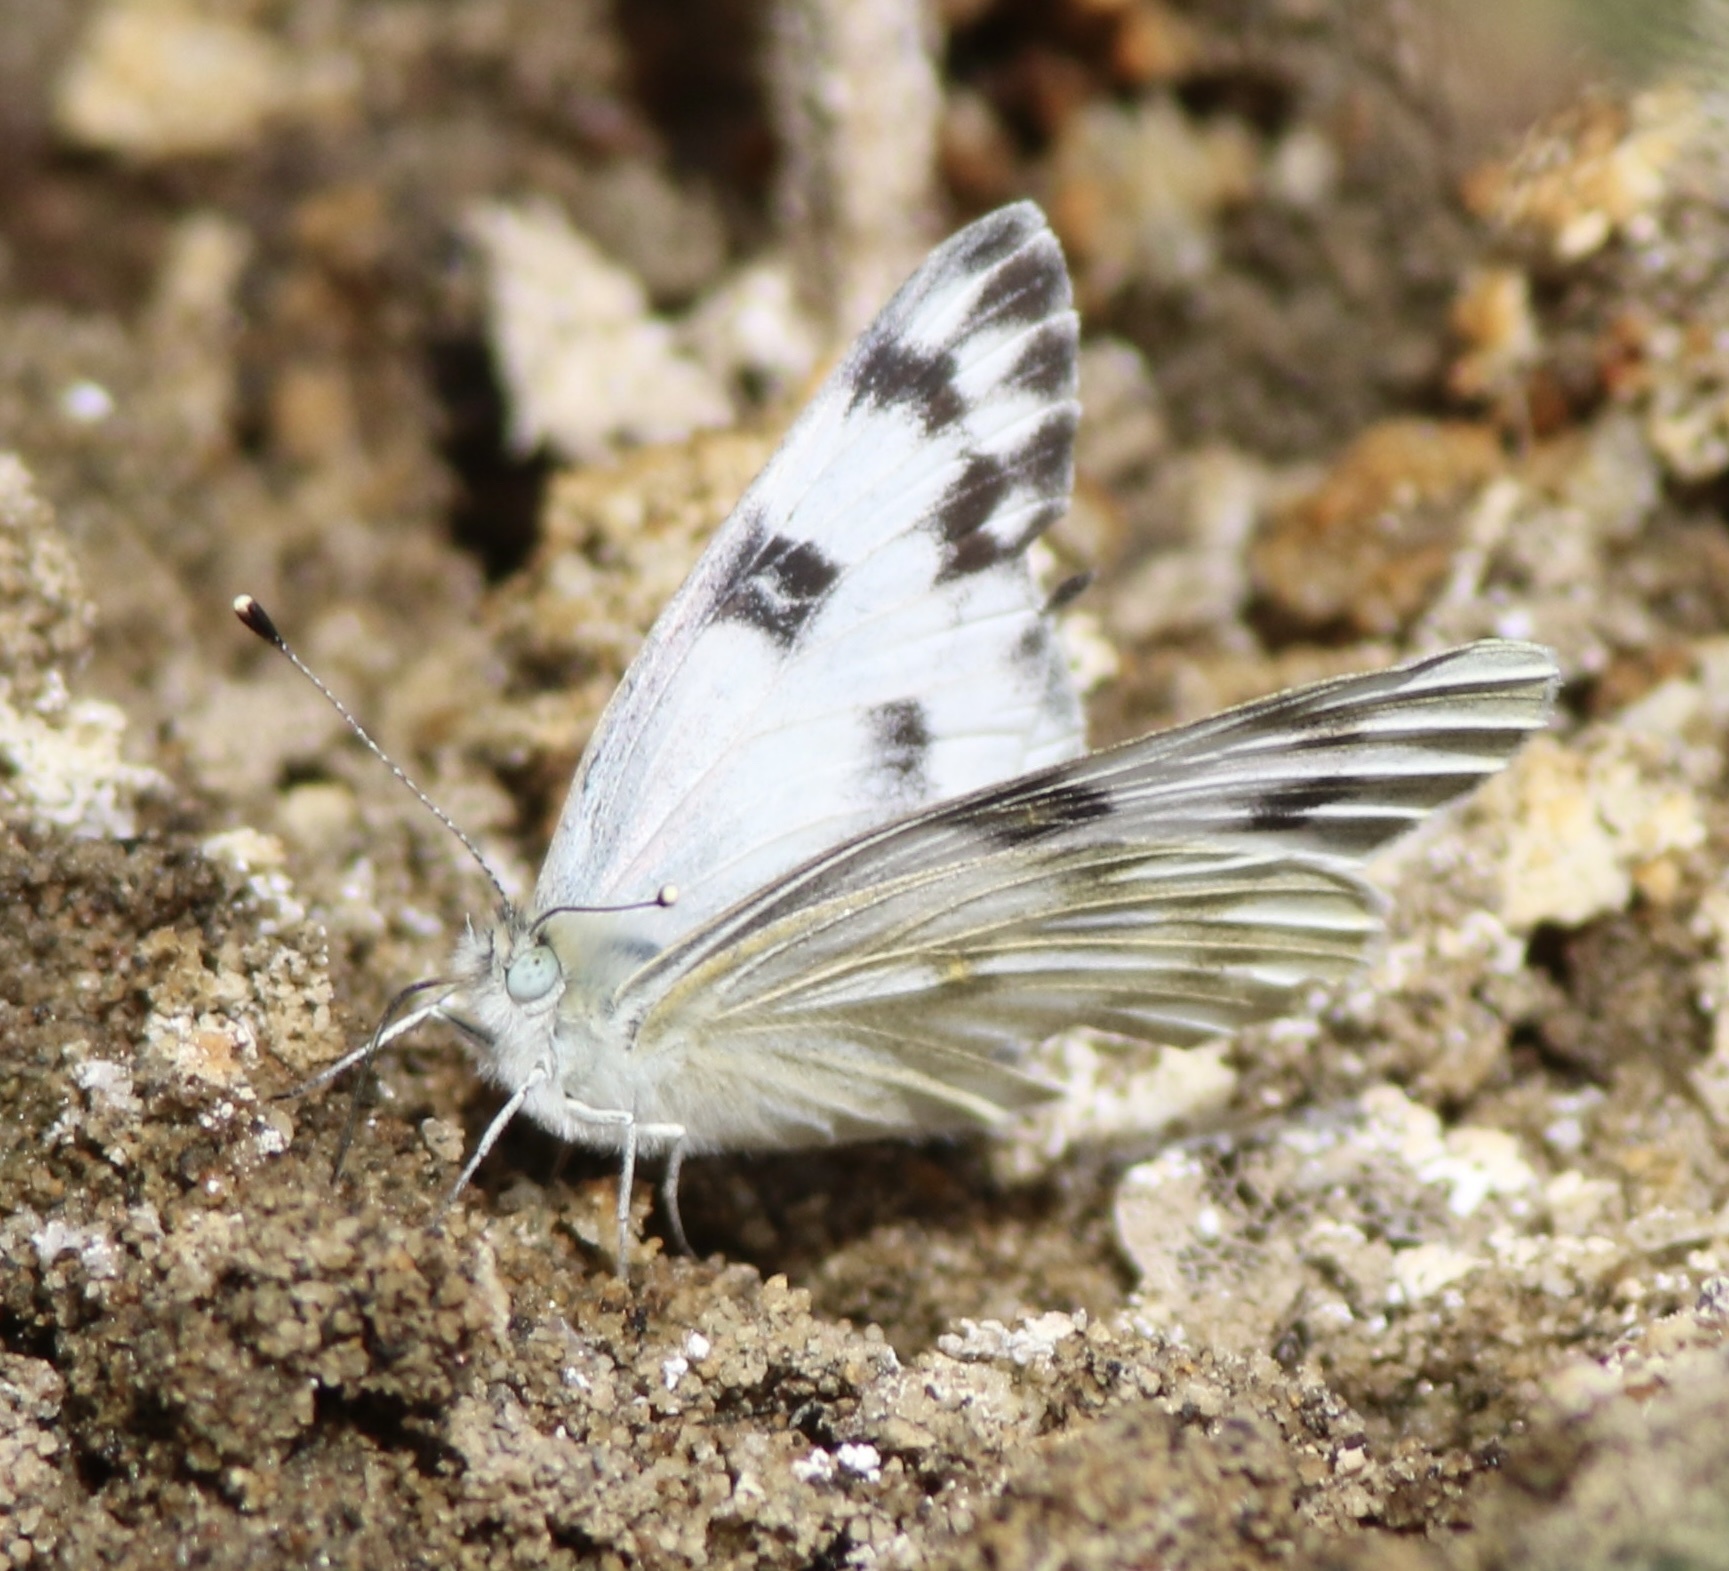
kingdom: Animalia
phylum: Arthropoda
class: Insecta
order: Lepidoptera
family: Pieridae
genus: Pontia
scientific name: Pontia protodice
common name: Checkered white
